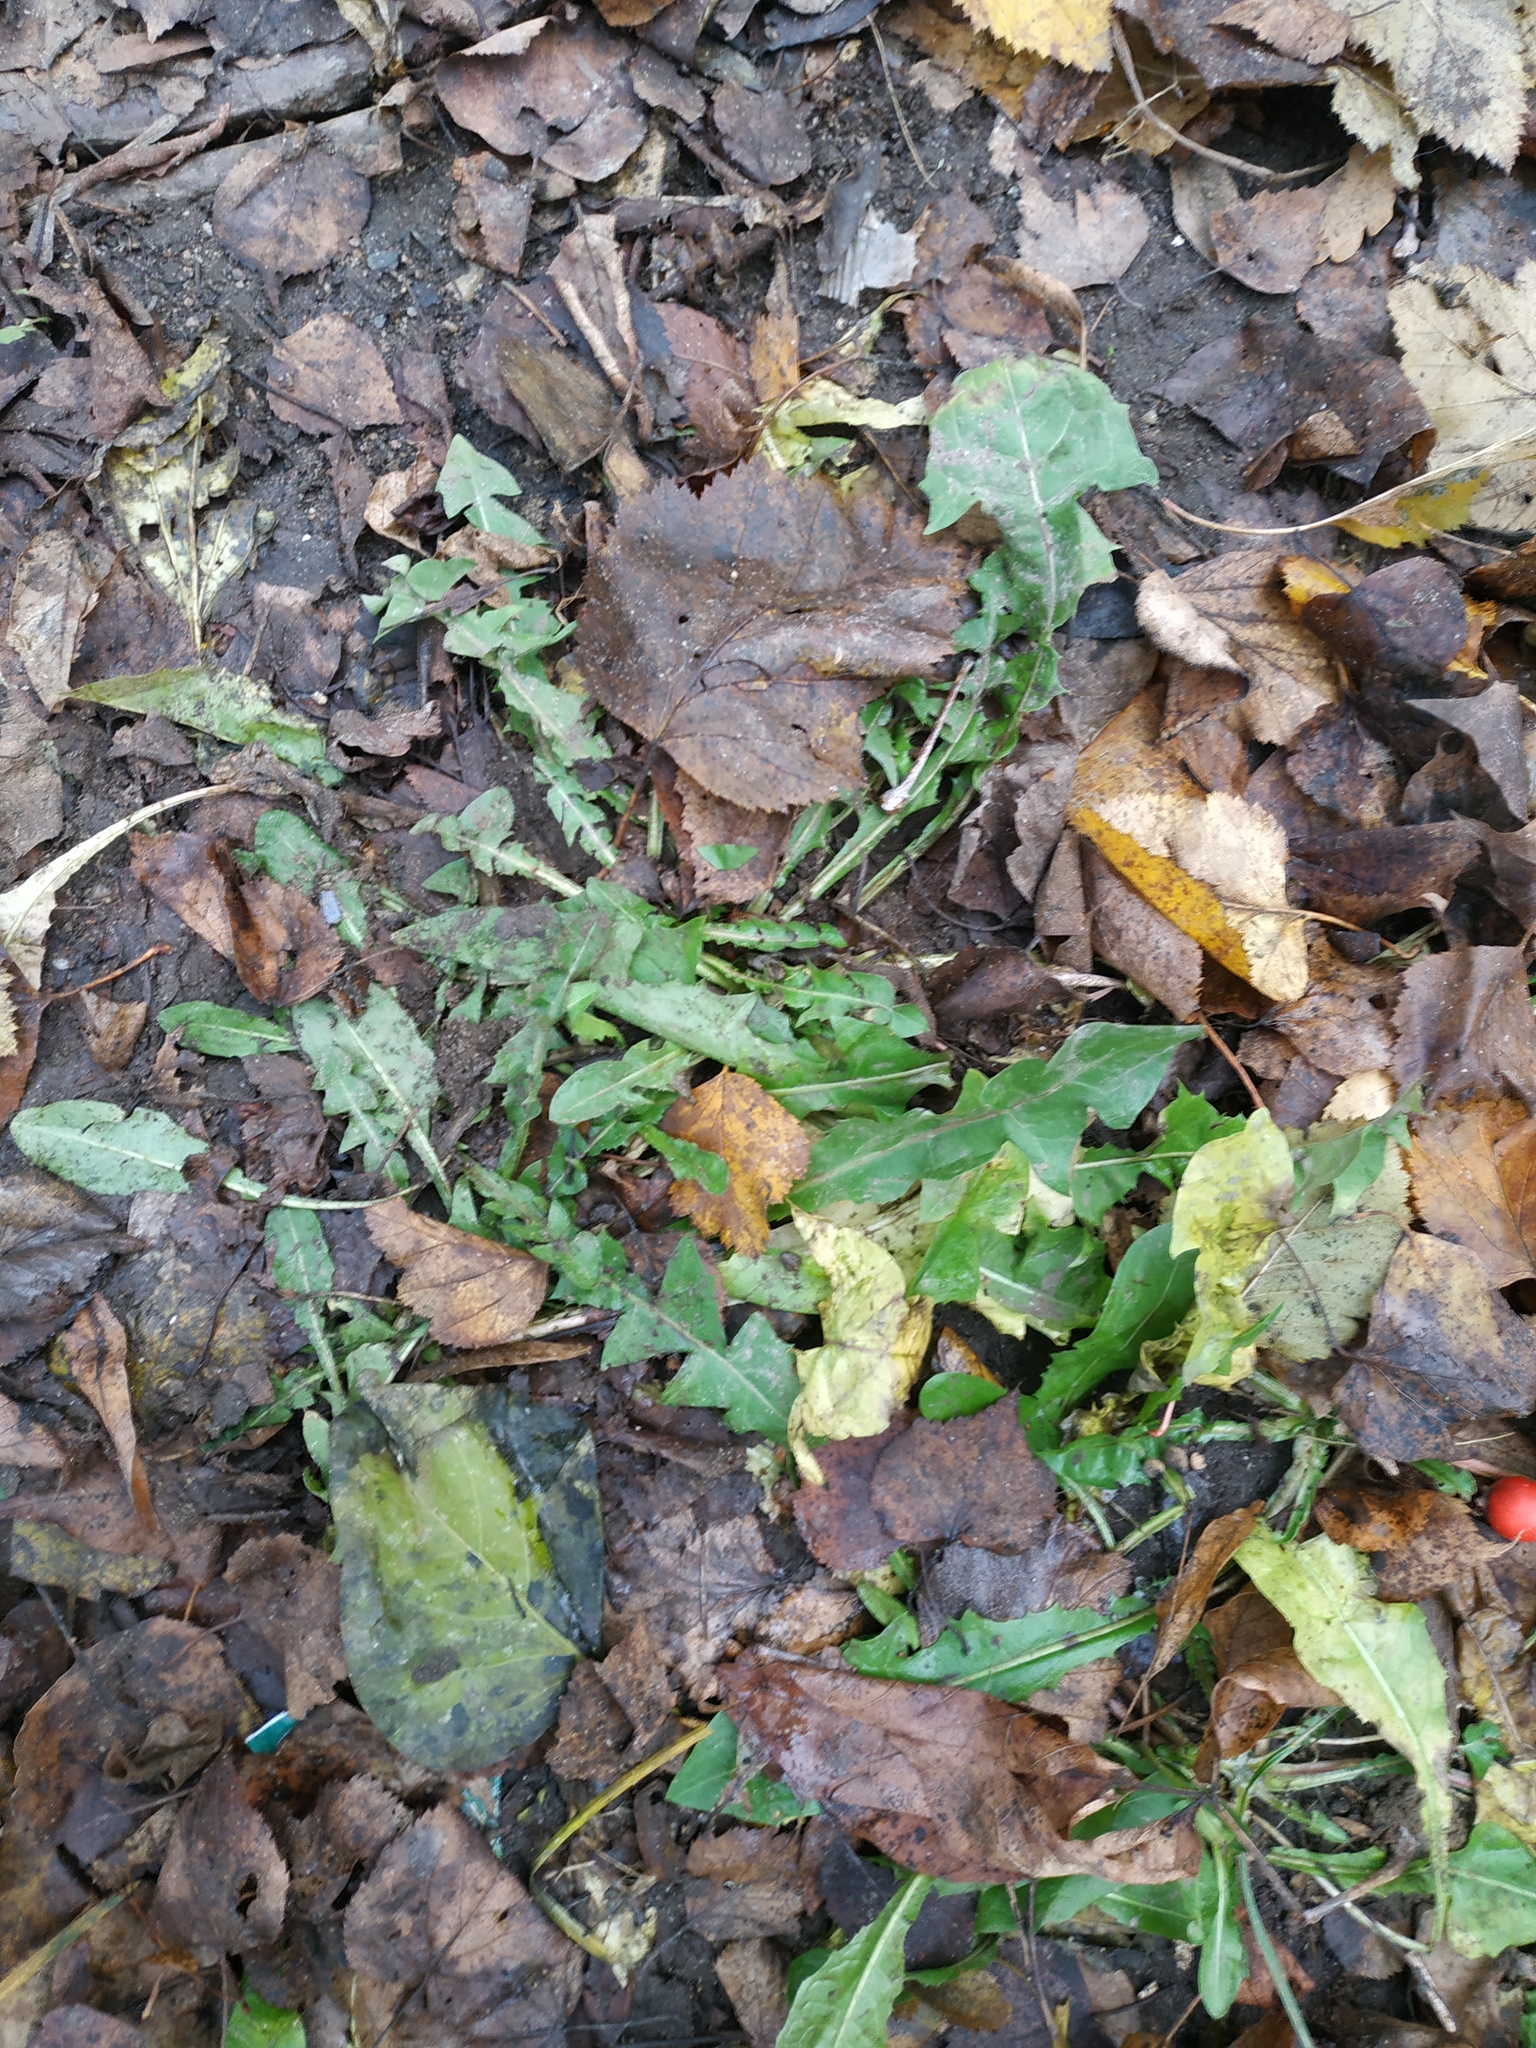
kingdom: Plantae
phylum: Tracheophyta
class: Magnoliopsida
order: Asterales
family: Asteraceae
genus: Taraxacum
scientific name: Taraxacum officinale
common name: Common dandelion
